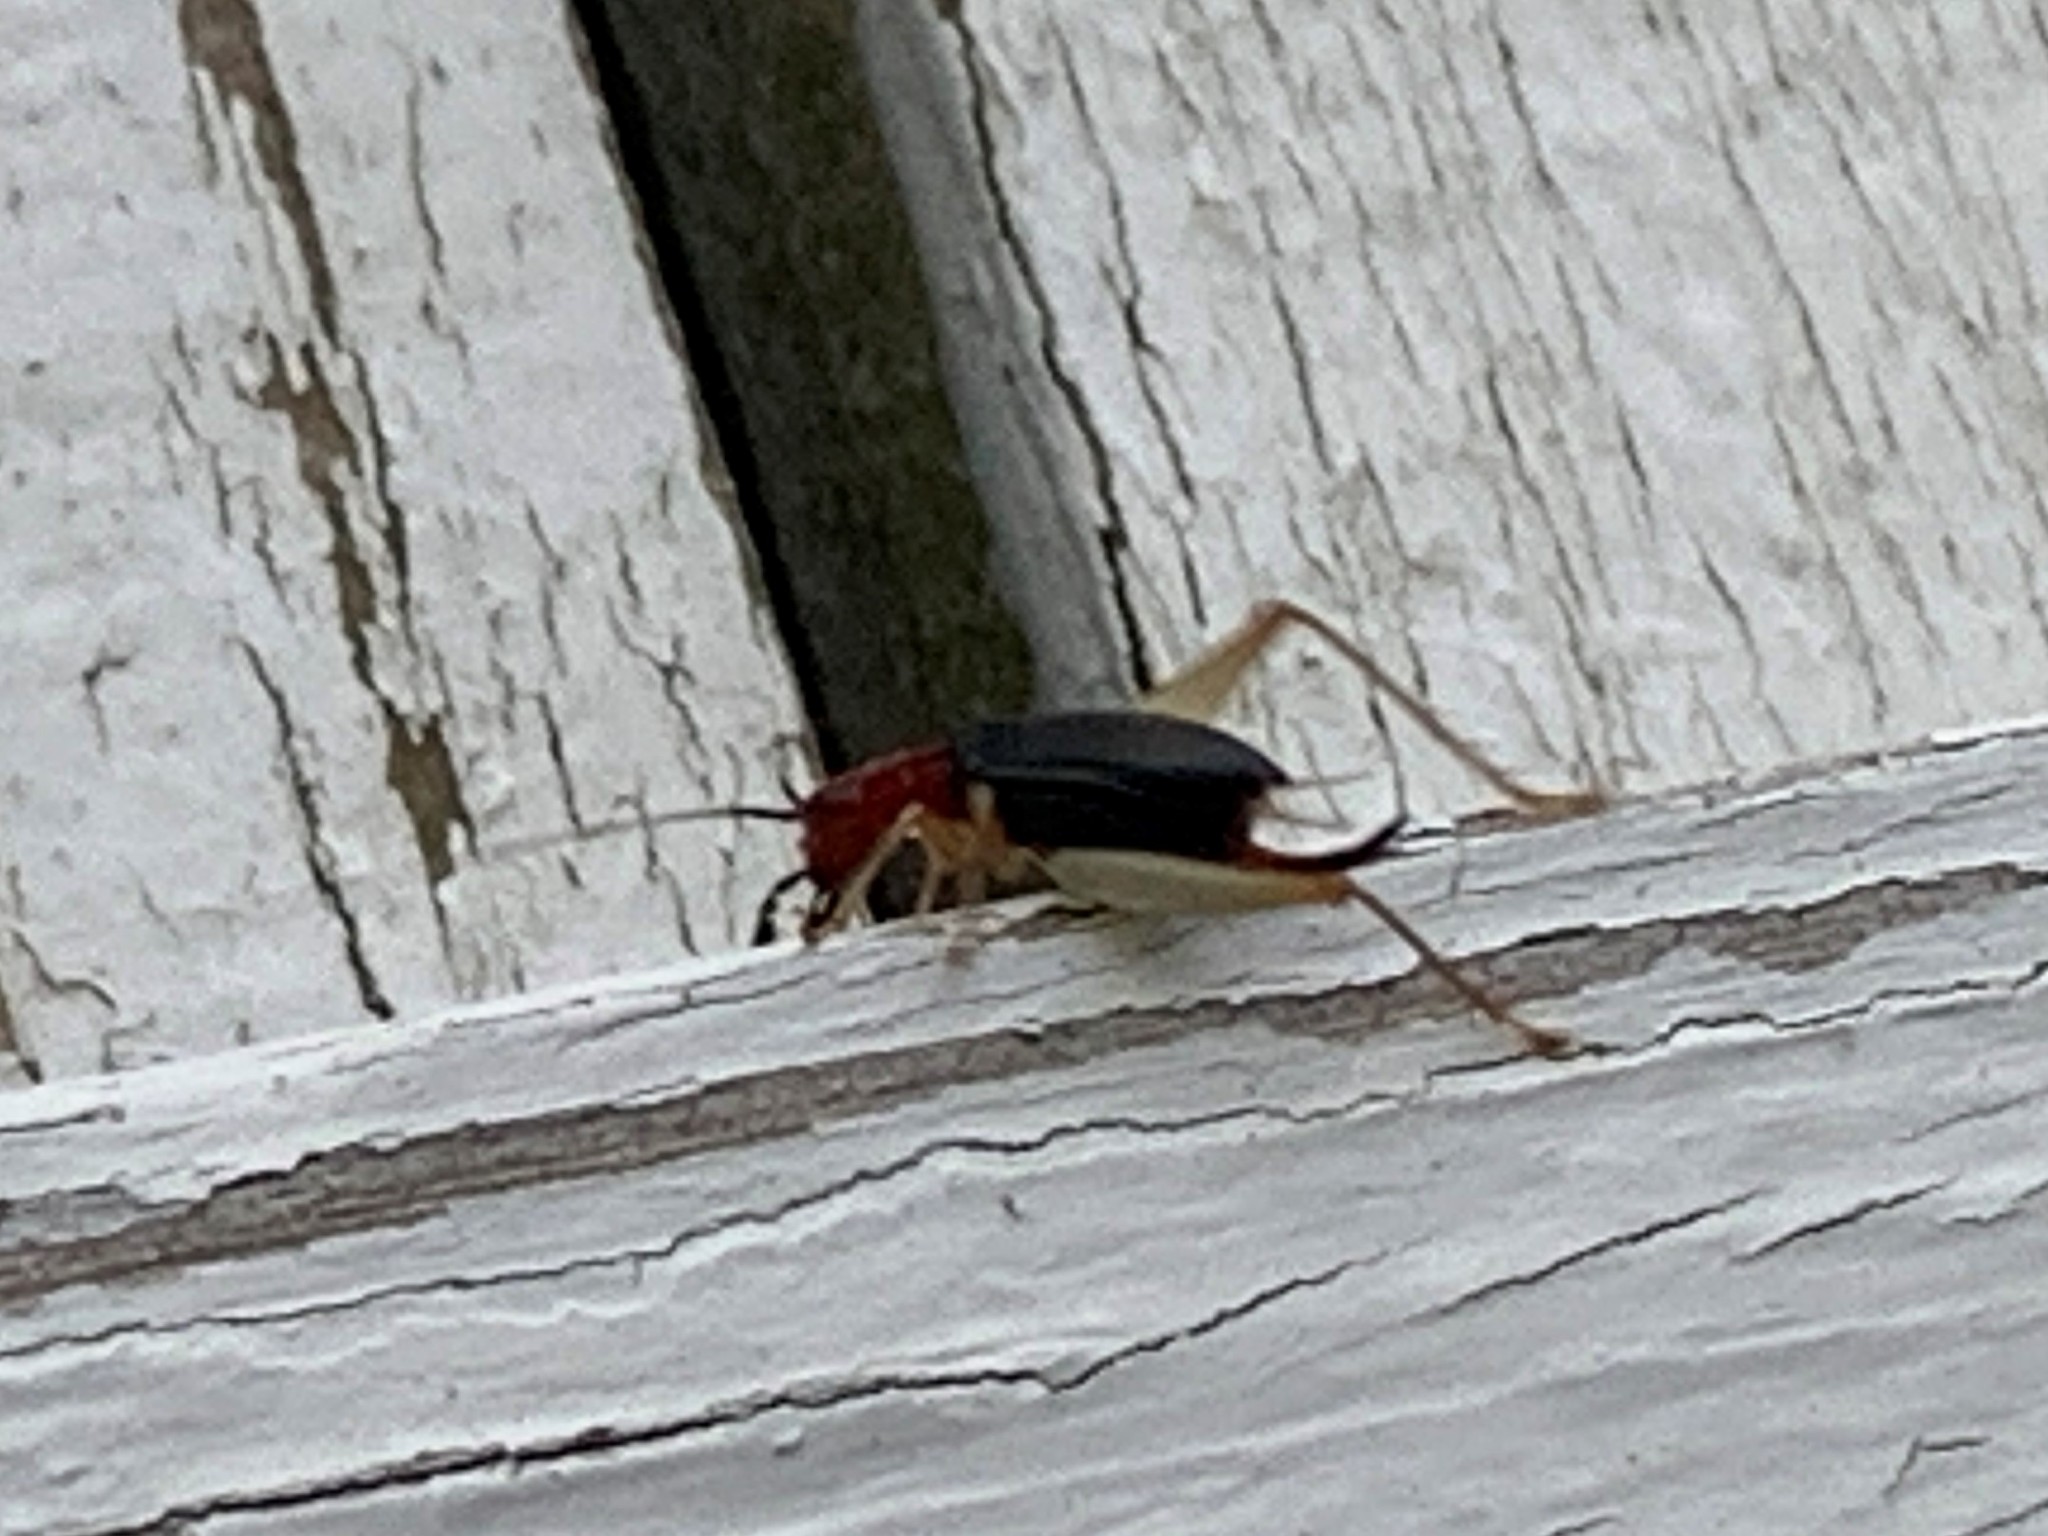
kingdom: Animalia
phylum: Arthropoda
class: Insecta
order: Orthoptera
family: Trigonidiidae
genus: Phyllopalpus
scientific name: Phyllopalpus pulchellus
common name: Handsome trig
